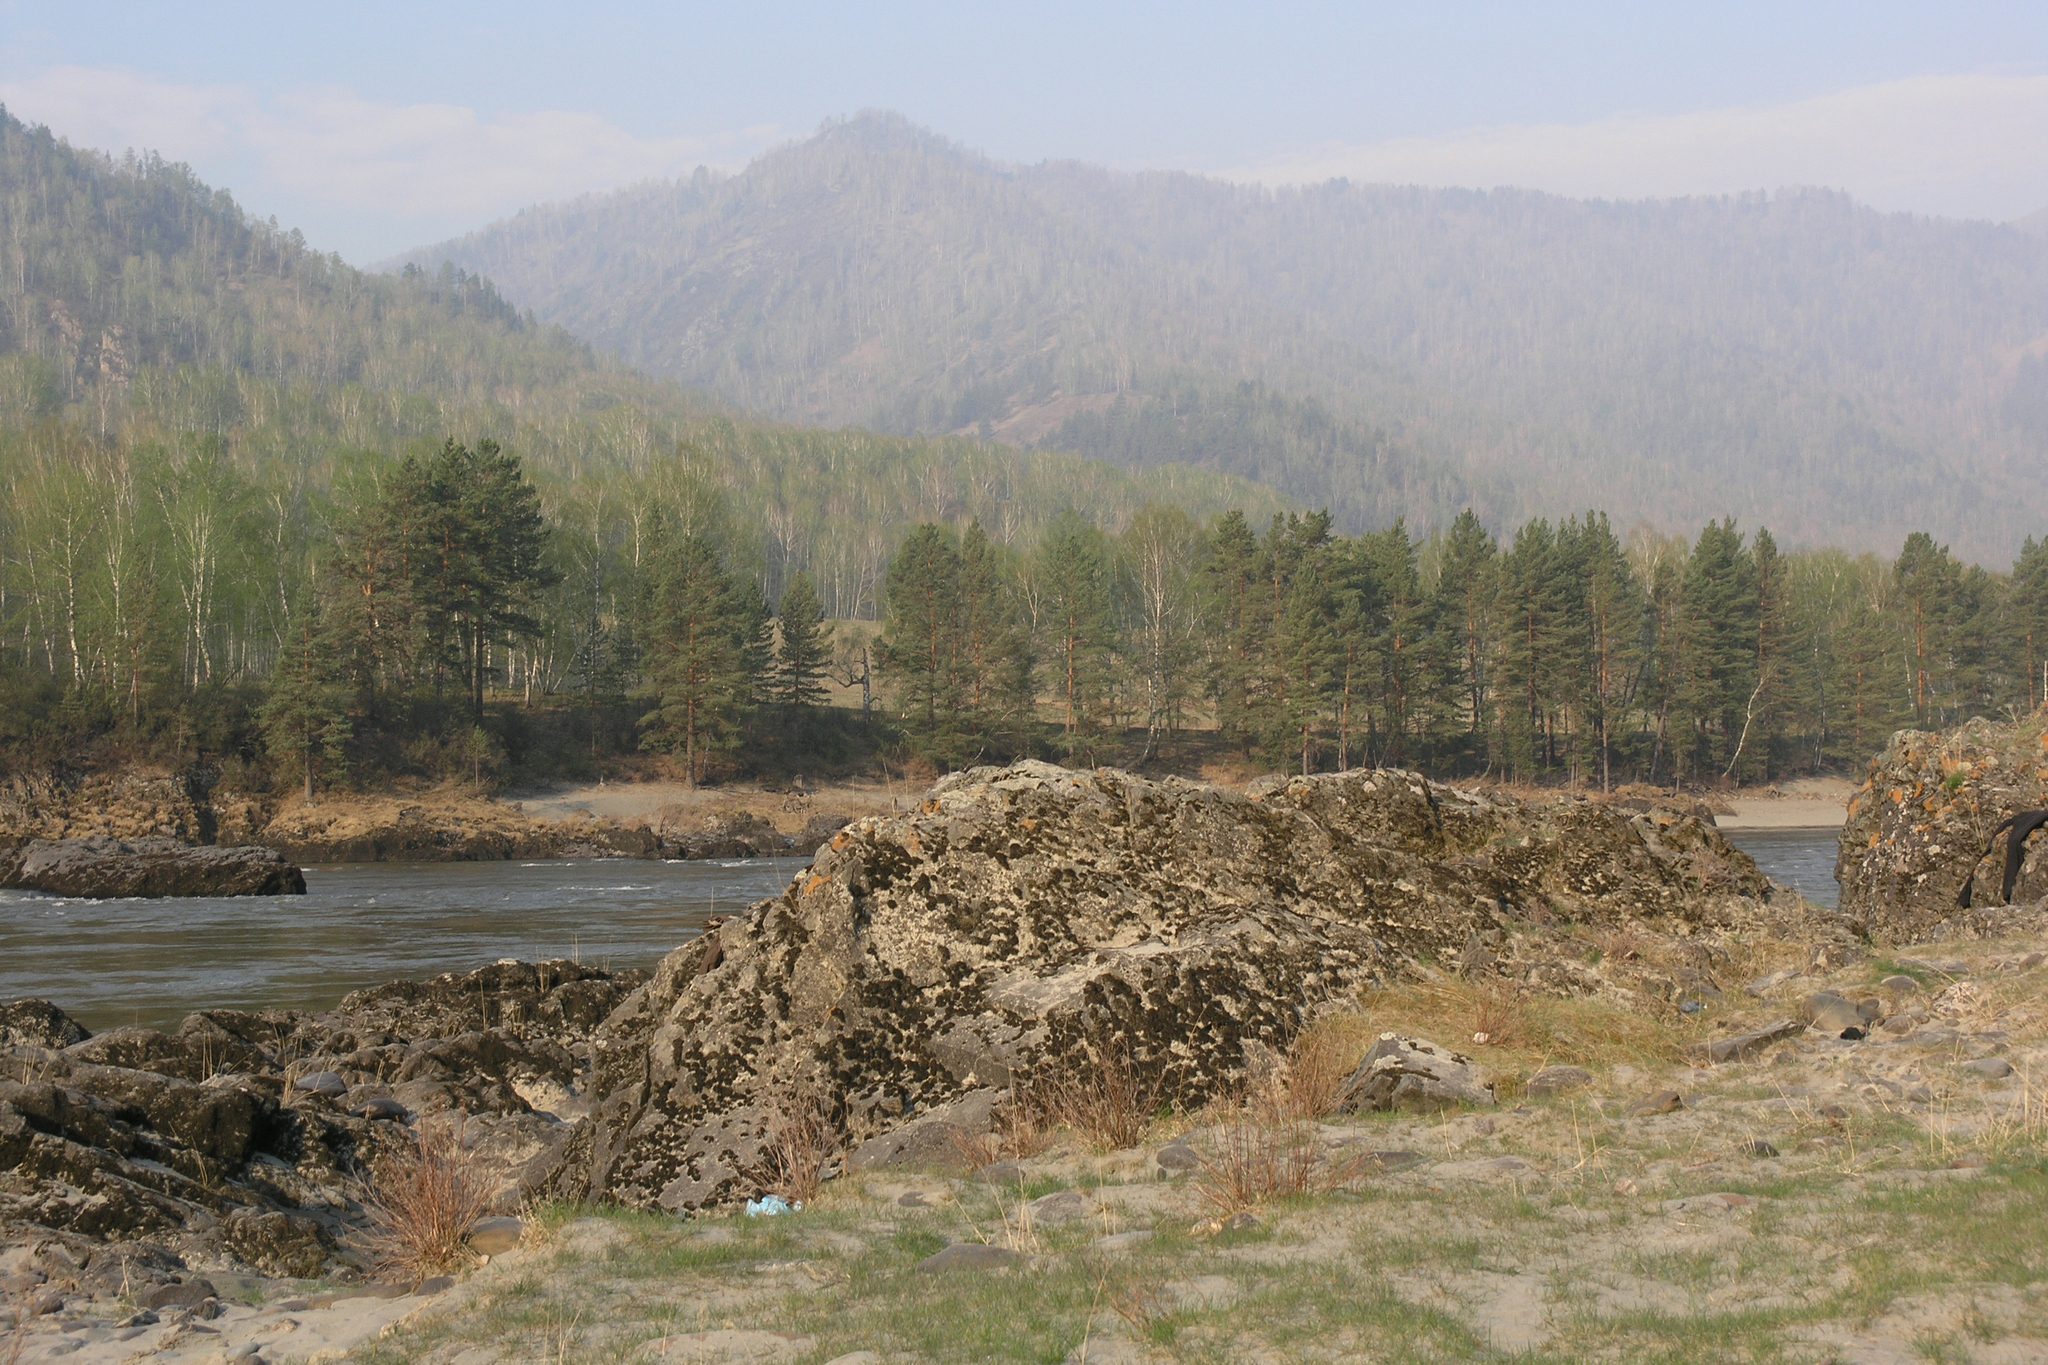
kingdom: Plantae
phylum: Tracheophyta
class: Pinopsida
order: Pinales
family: Pinaceae
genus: Pinus
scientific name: Pinus sylvestris
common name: Scots pine
